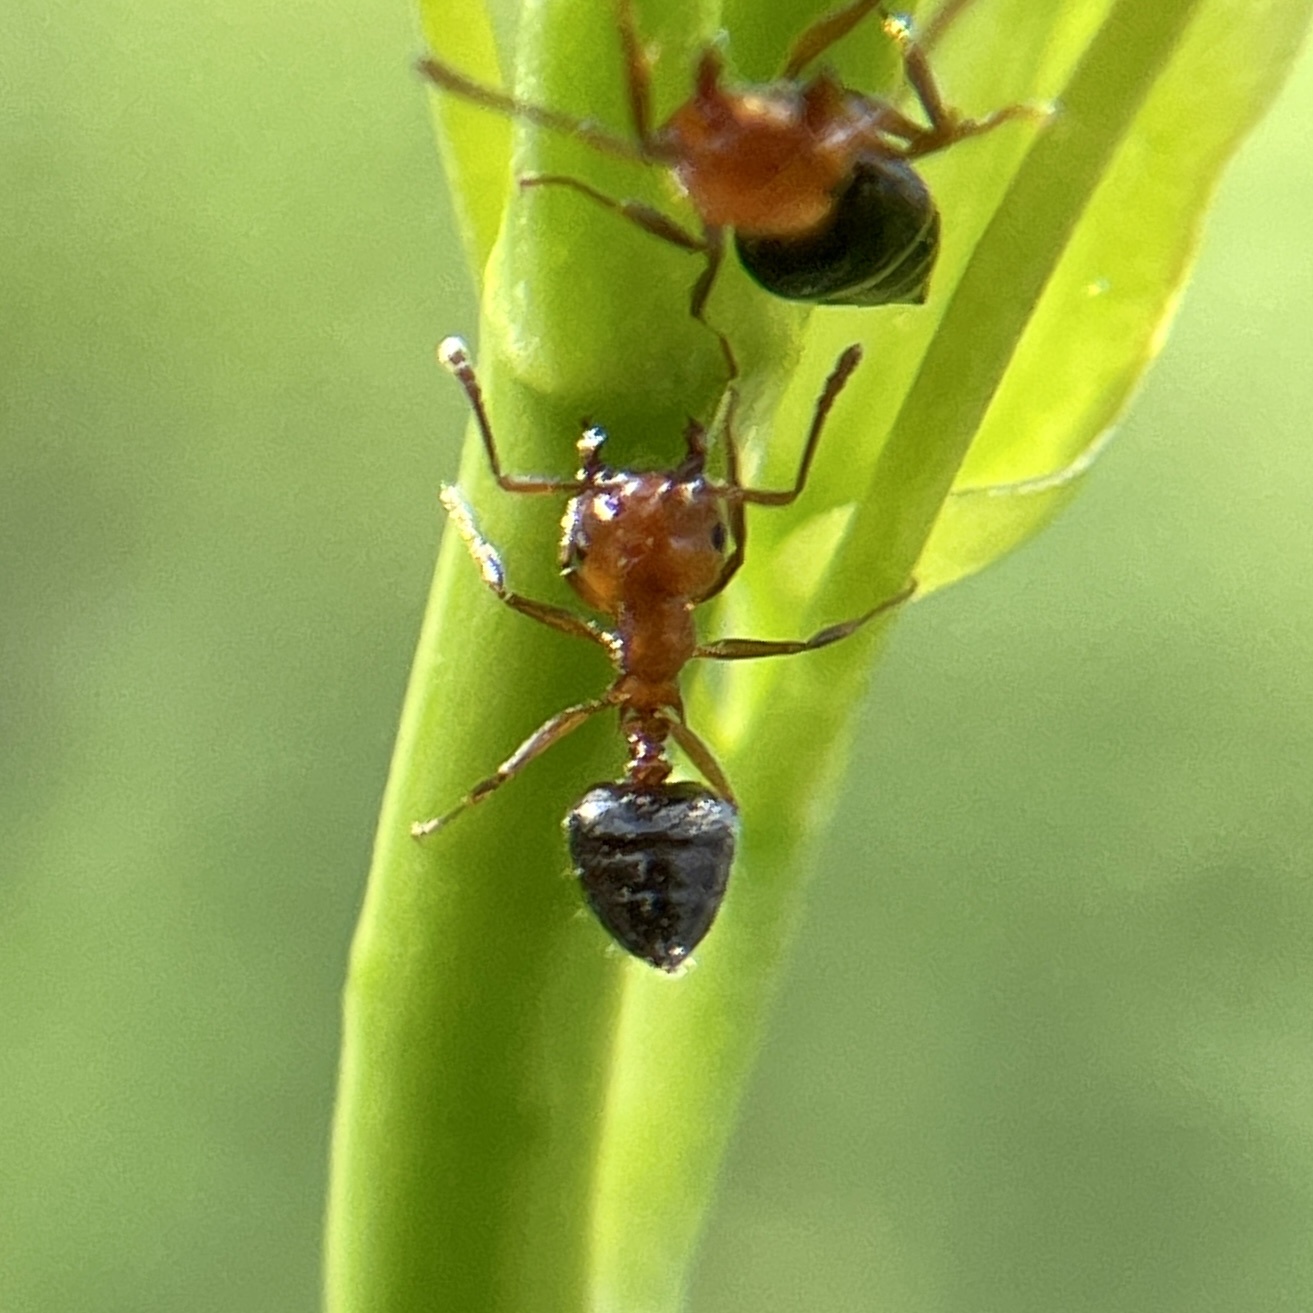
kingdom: Animalia
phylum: Arthropoda
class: Insecta
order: Hymenoptera
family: Formicidae
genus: Crematogaster
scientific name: Crematogaster laeviuscula
